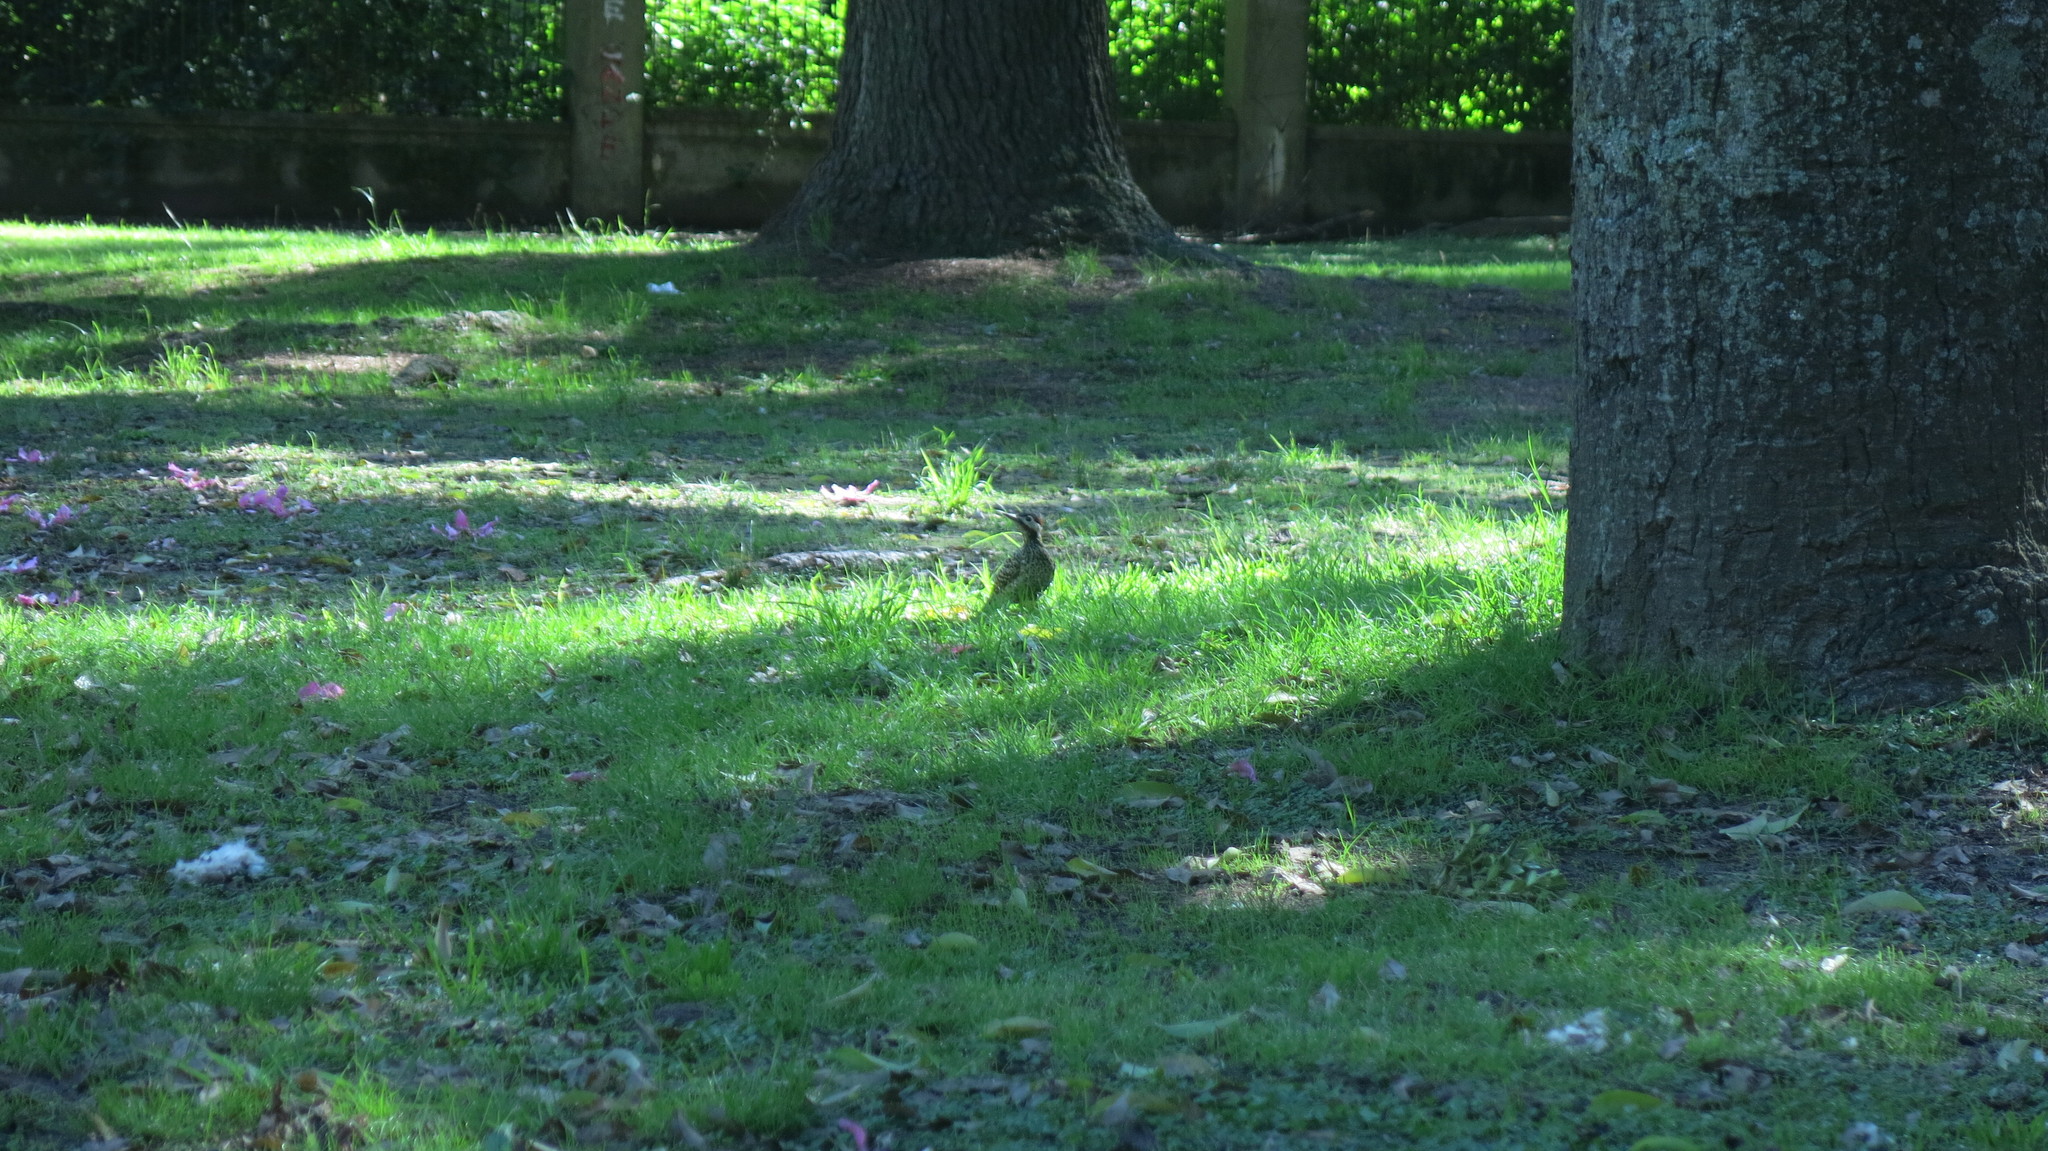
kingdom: Animalia
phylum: Chordata
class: Aves
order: Piciformes
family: Picidae
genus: Colaptes
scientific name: Colaptes melanochloros
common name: Green-barred woodpecker
